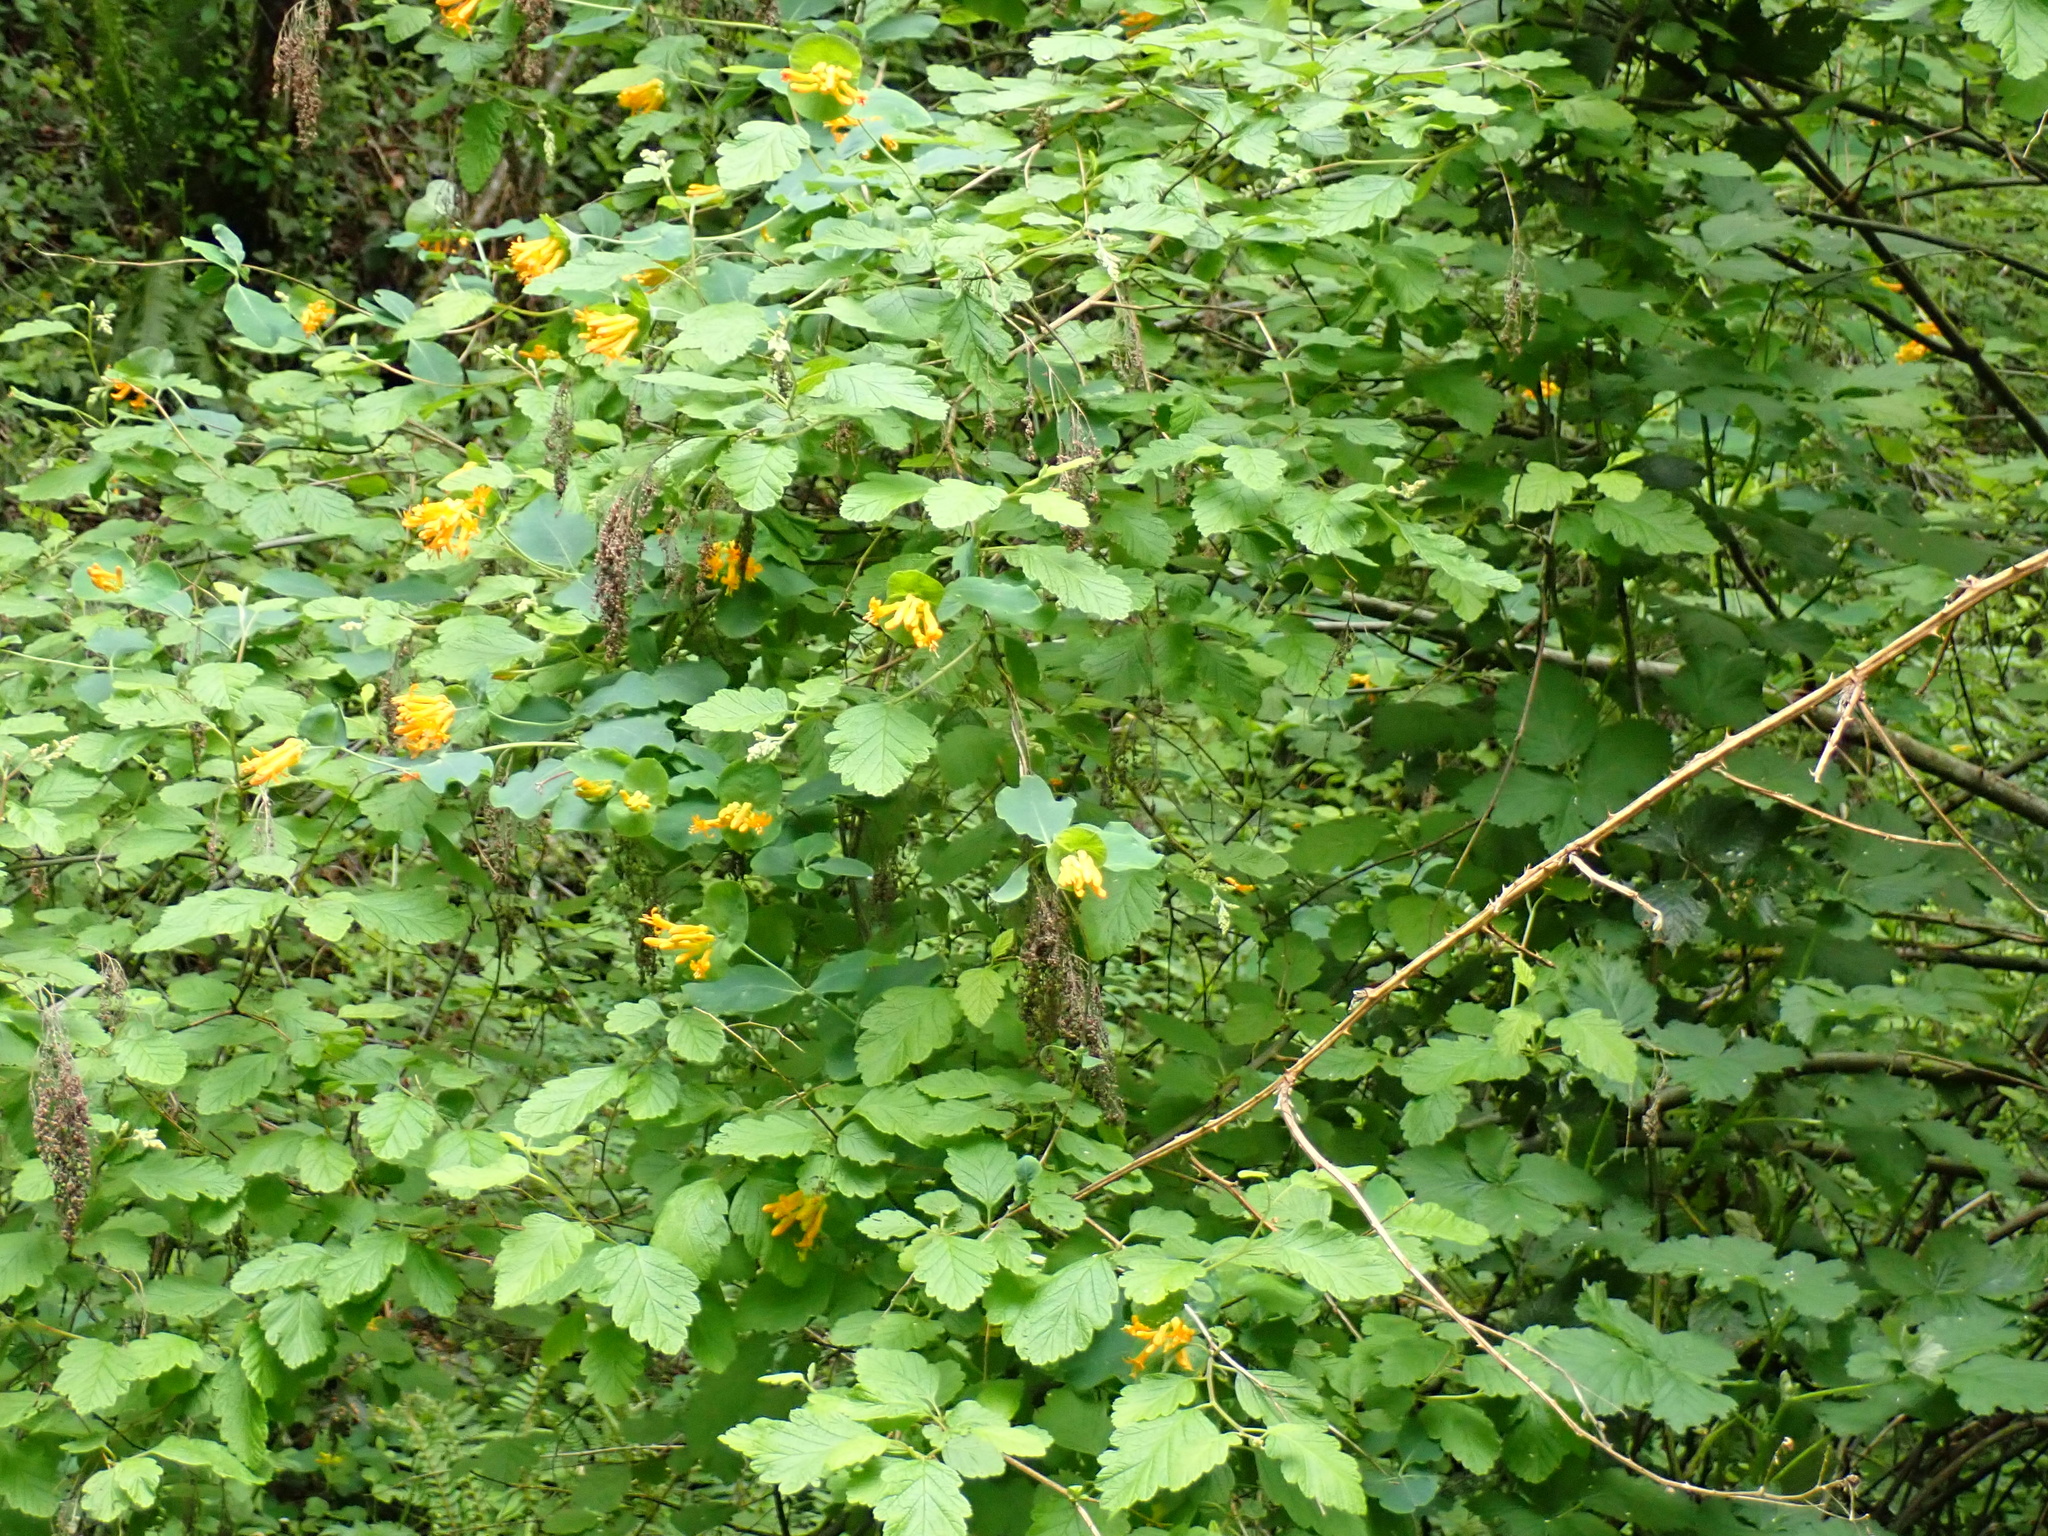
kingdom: Plantae
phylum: Tracheophyta
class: Magnoliopsida
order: Dipsacales
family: Caprifoliaceae
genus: Lonicera
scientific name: Lonicera ciliosa
